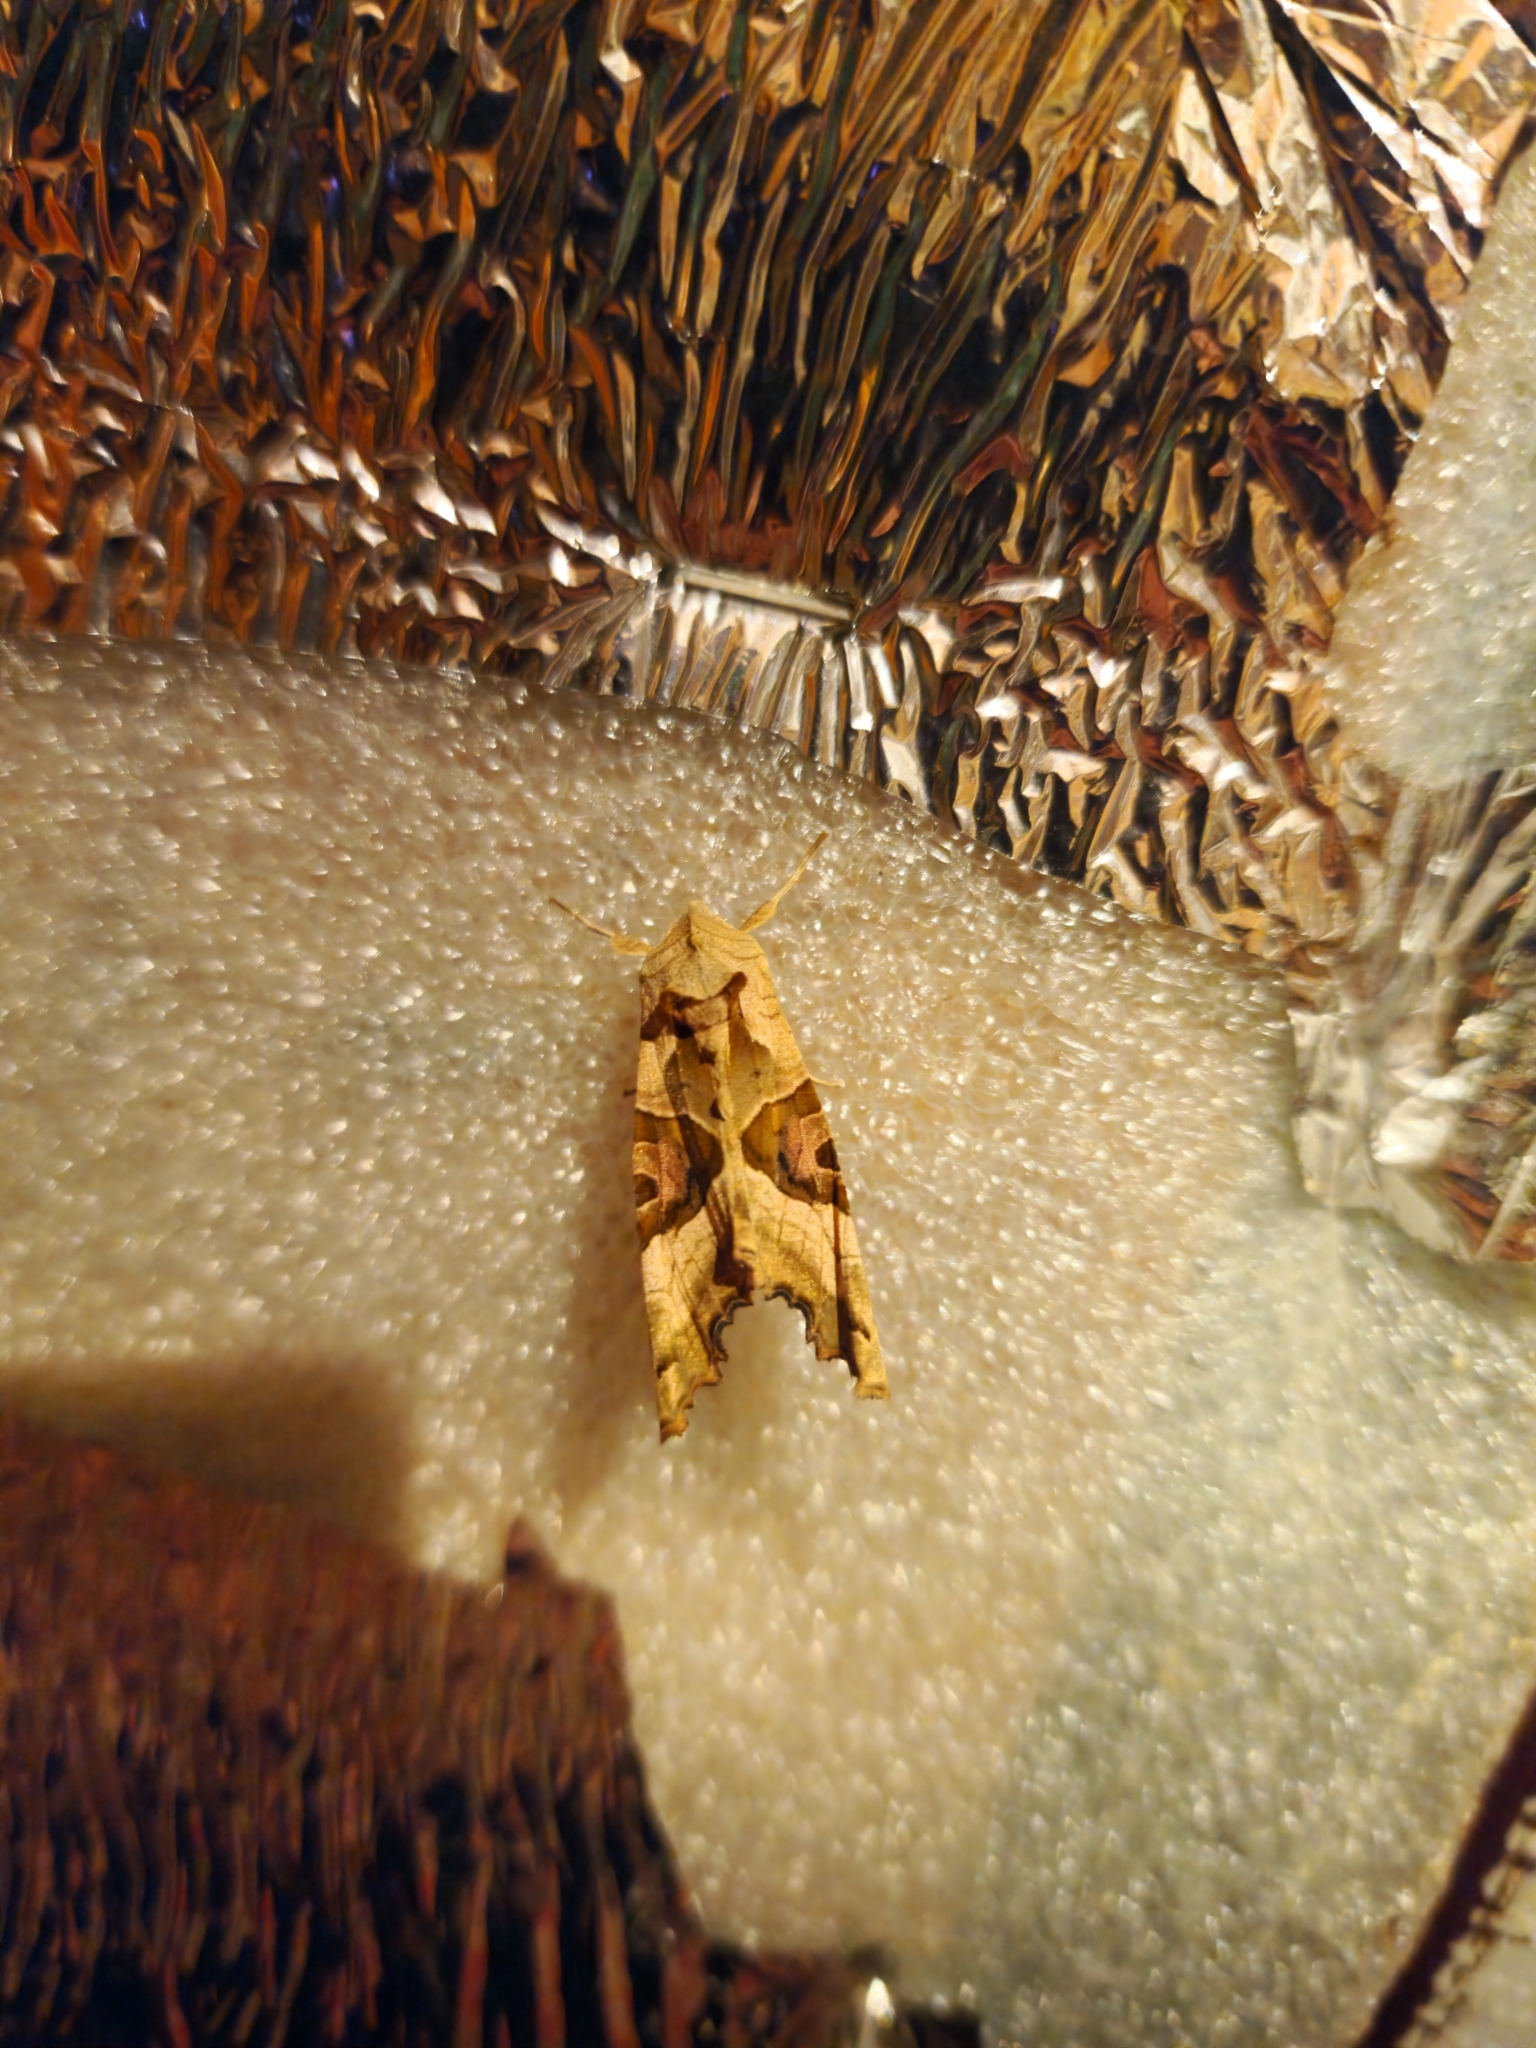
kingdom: Animalia
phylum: Arthropoda
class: Insecta
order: Lepidoptera
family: Noctuidae
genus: Phlogophora
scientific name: Phlogophora meticulosa
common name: Angle shades
